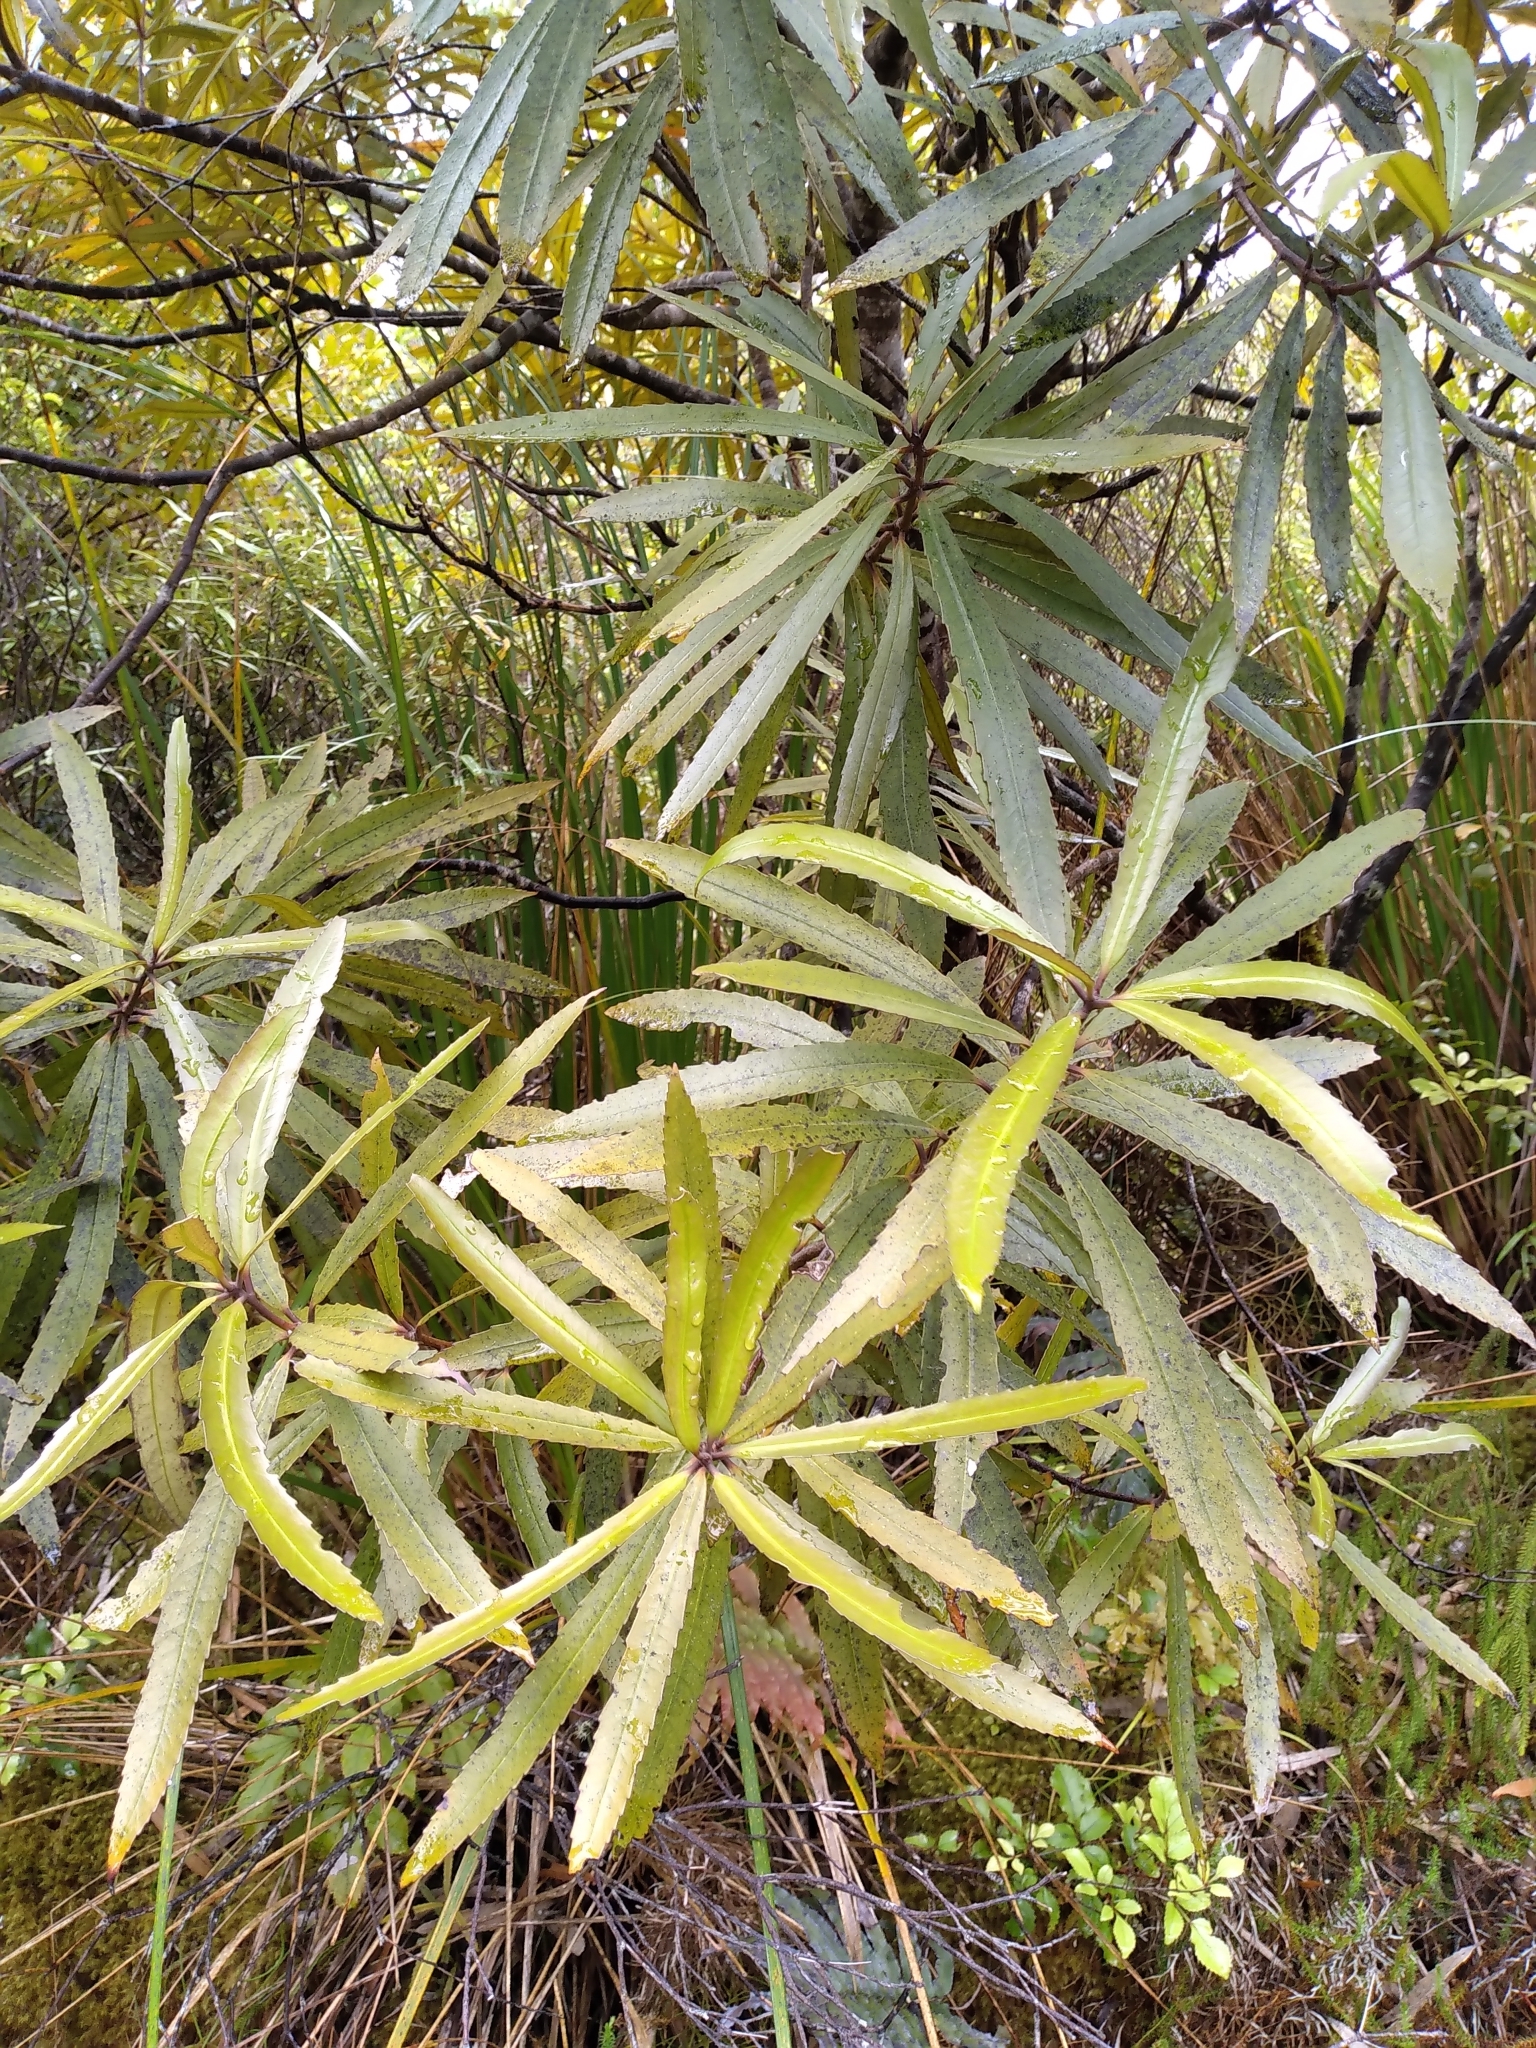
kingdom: Plantae
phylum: Tracheophyta
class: Magnoliopsida
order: Crossosomatales
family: Ixerbaceae
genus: Ixerba
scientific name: Ixerba brexioides
